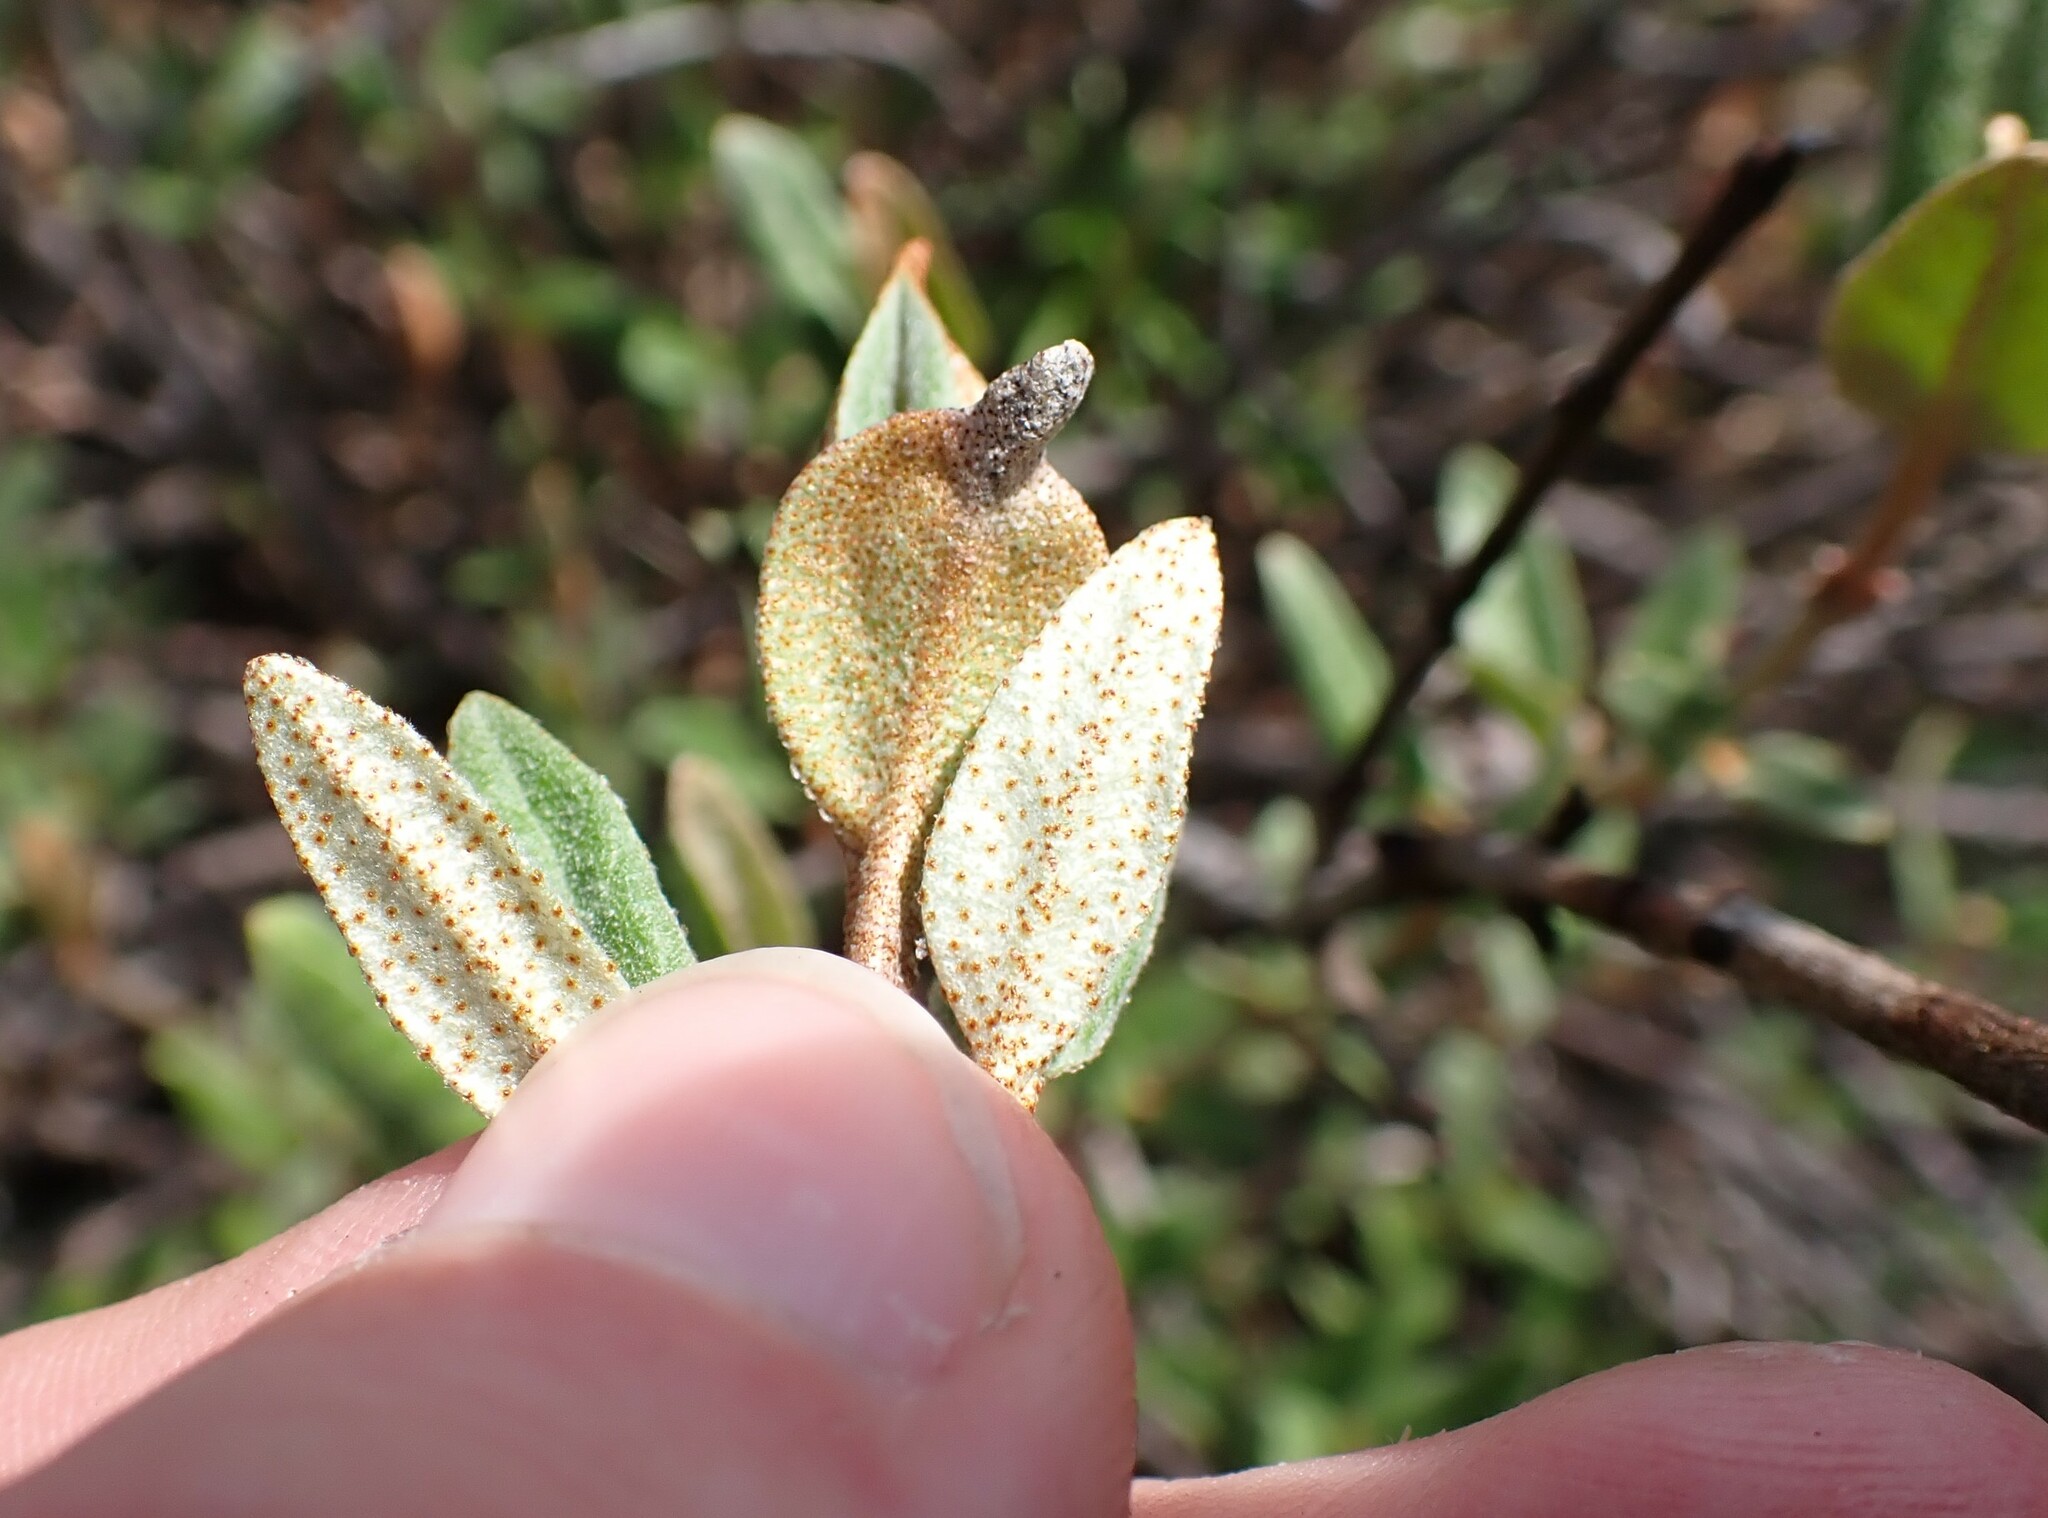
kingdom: Plantae
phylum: Tracheophyta
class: Magnoliopsida
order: Rosales
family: Elaeagnaceae
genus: Shepherdia
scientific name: Shepherdia canadensis
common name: Soapberry
